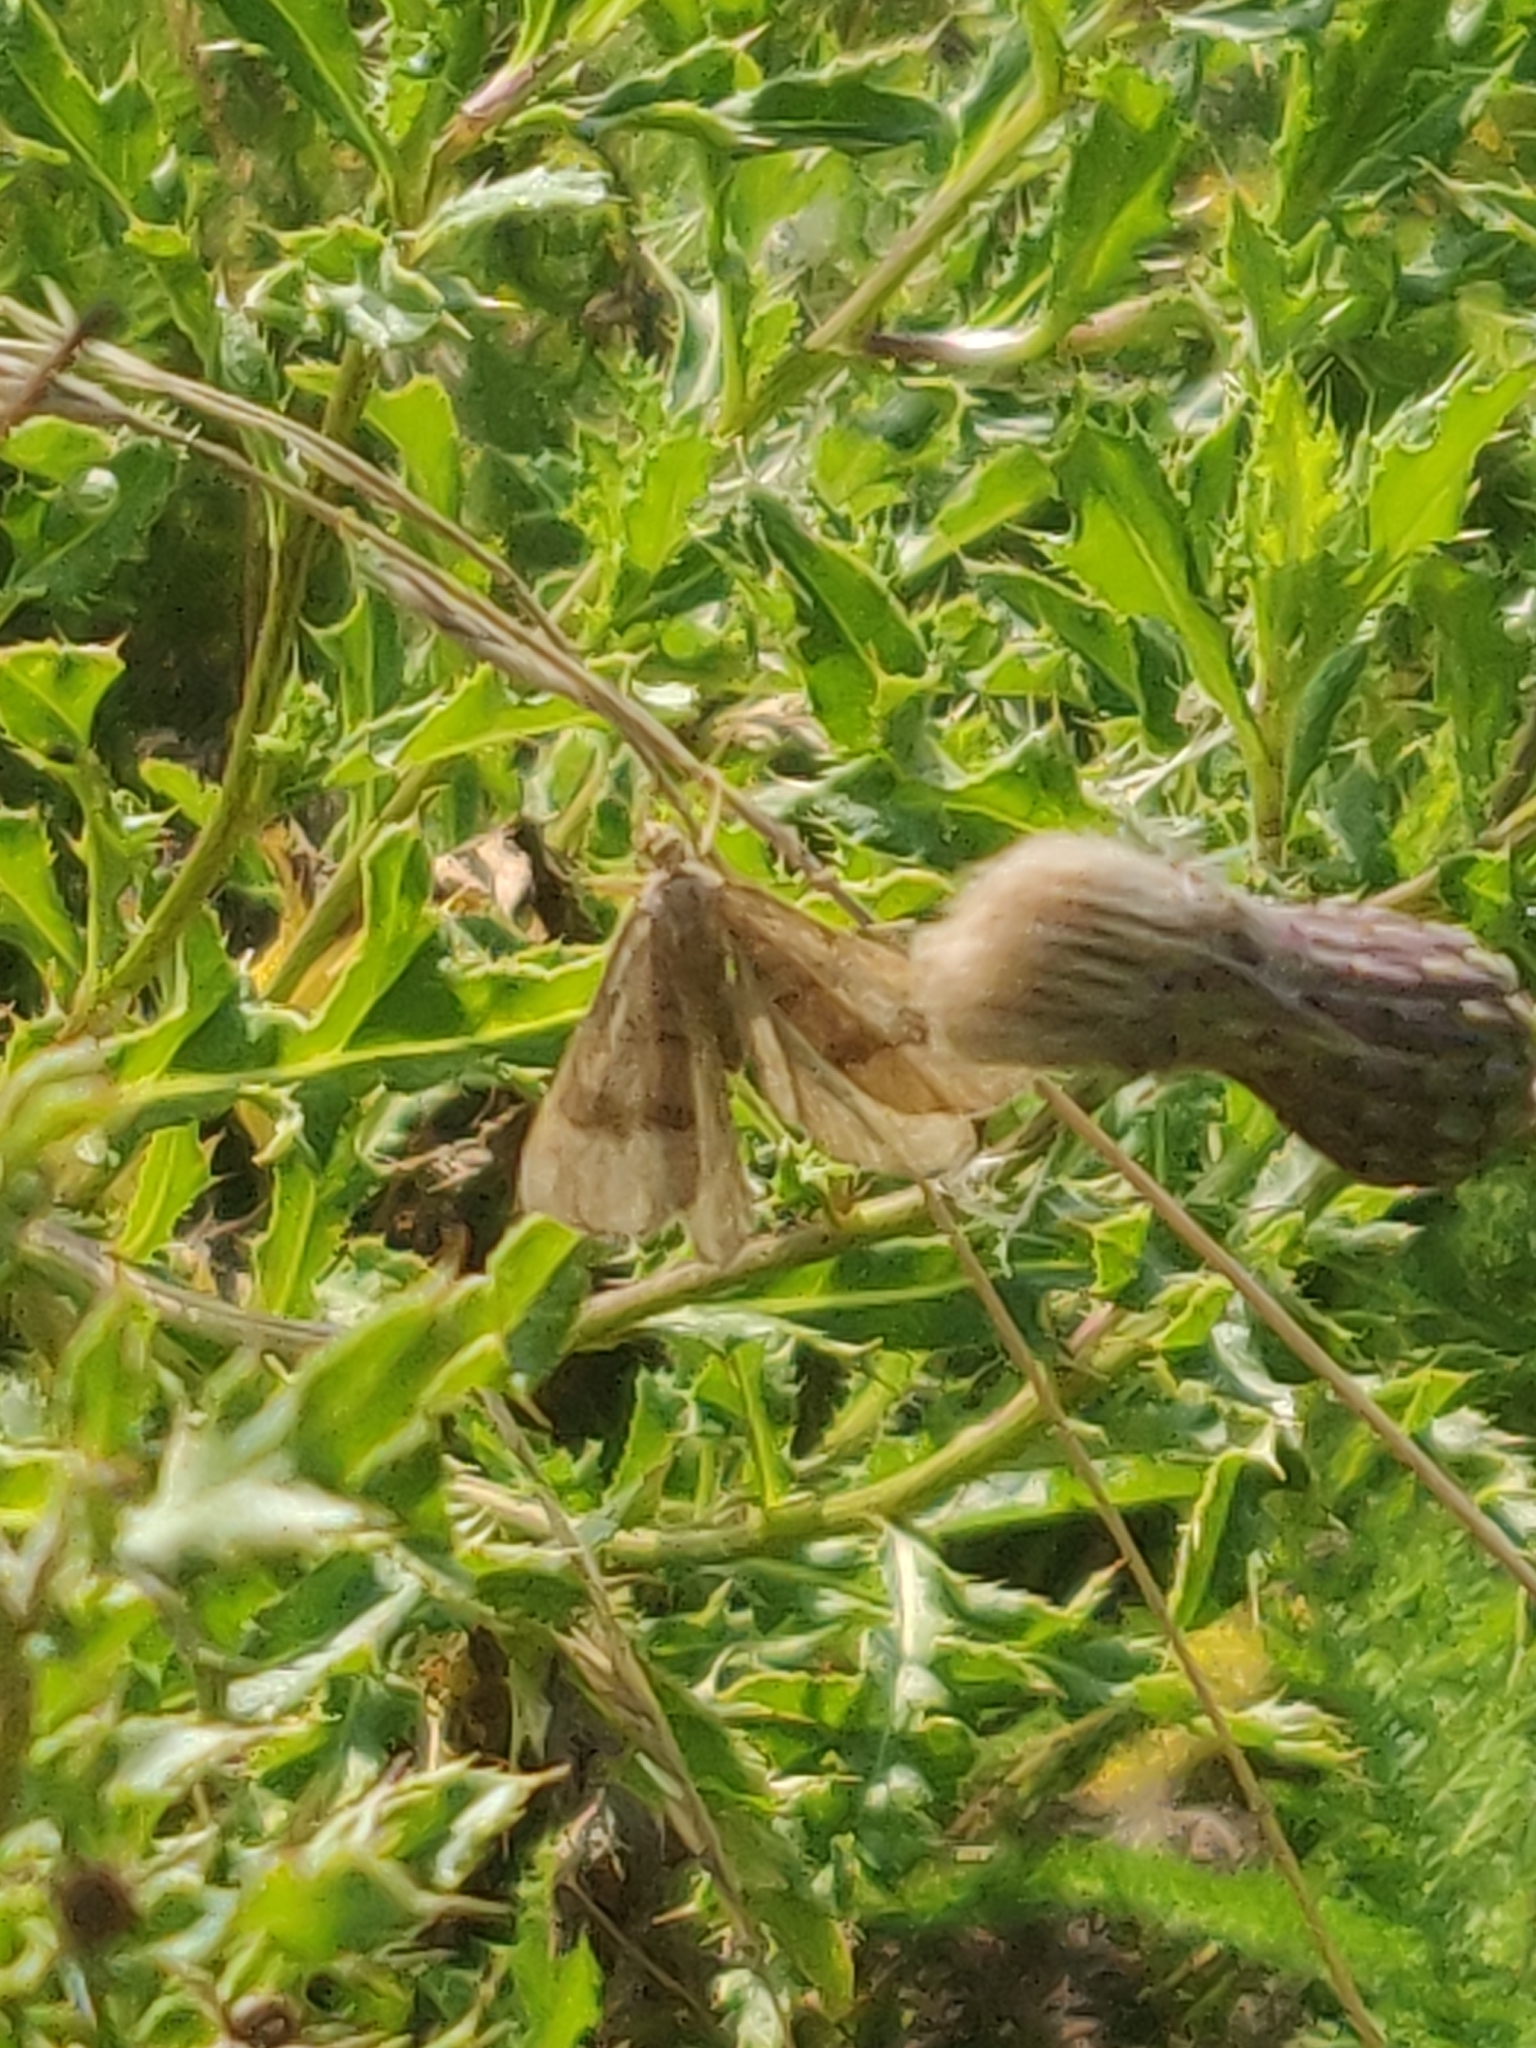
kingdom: Animalia
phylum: Arthropoda
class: Insecta
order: Lepidoptera
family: Geometridae
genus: Scotopteryx
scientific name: Scotopteryx chenopodiata
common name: Shaded broad-bar
